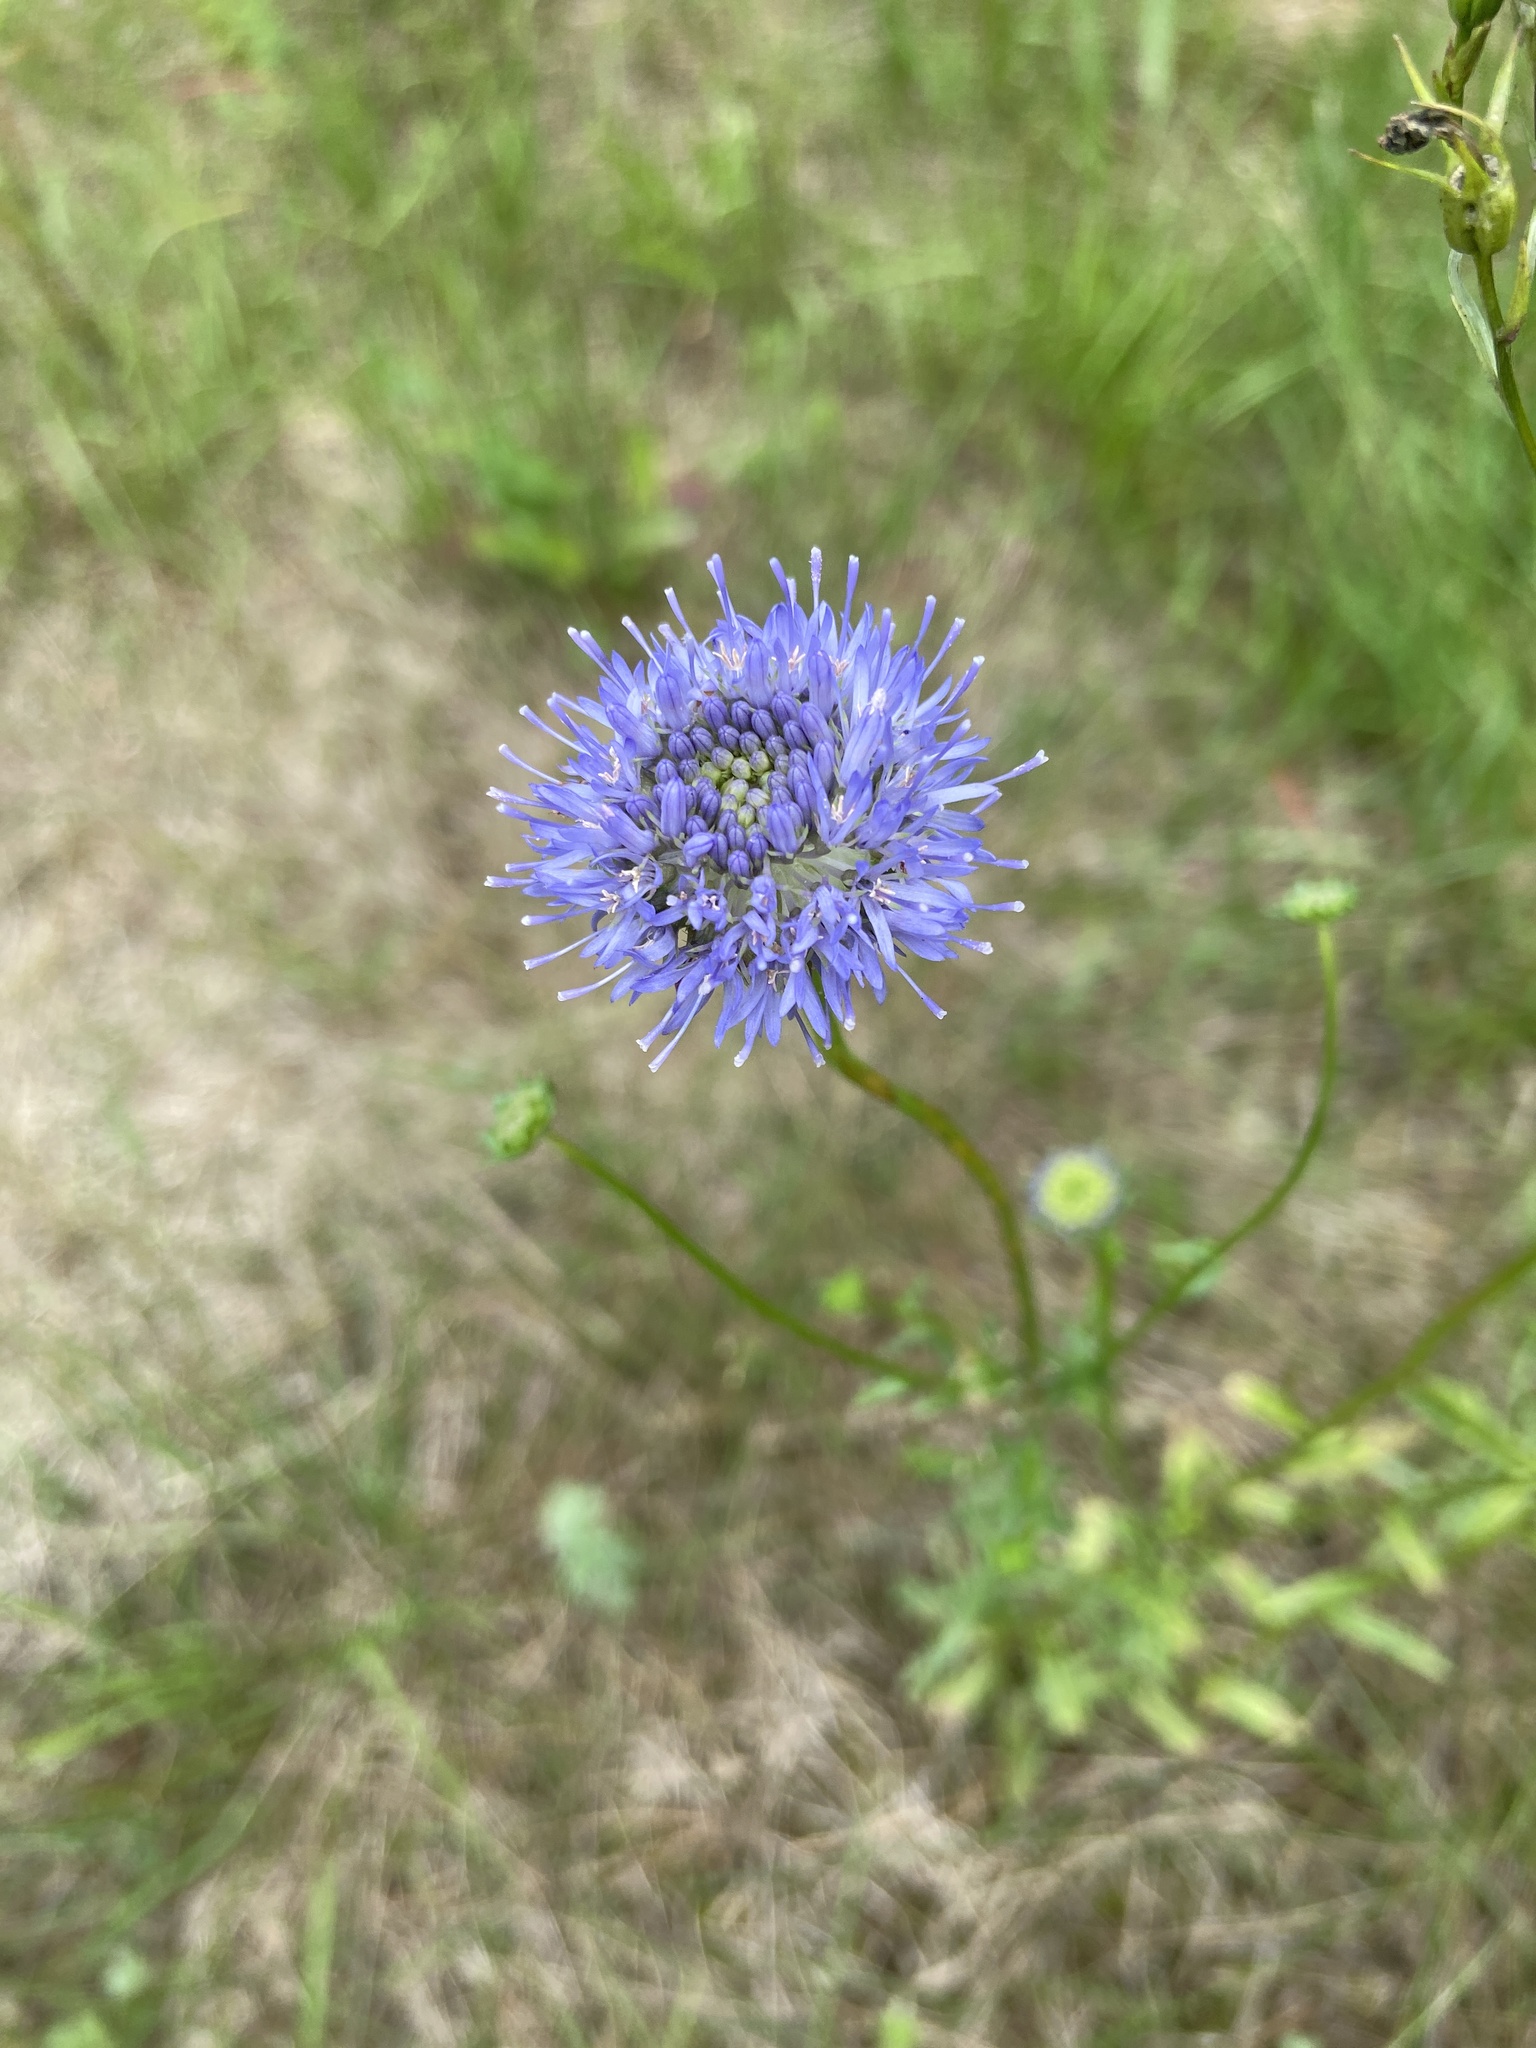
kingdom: Plantae
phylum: Tracheophyta
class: Magnoliopsida
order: Asterales
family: Campanulaceae
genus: Jasione
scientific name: Jasione montana
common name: Sheep's-bit
